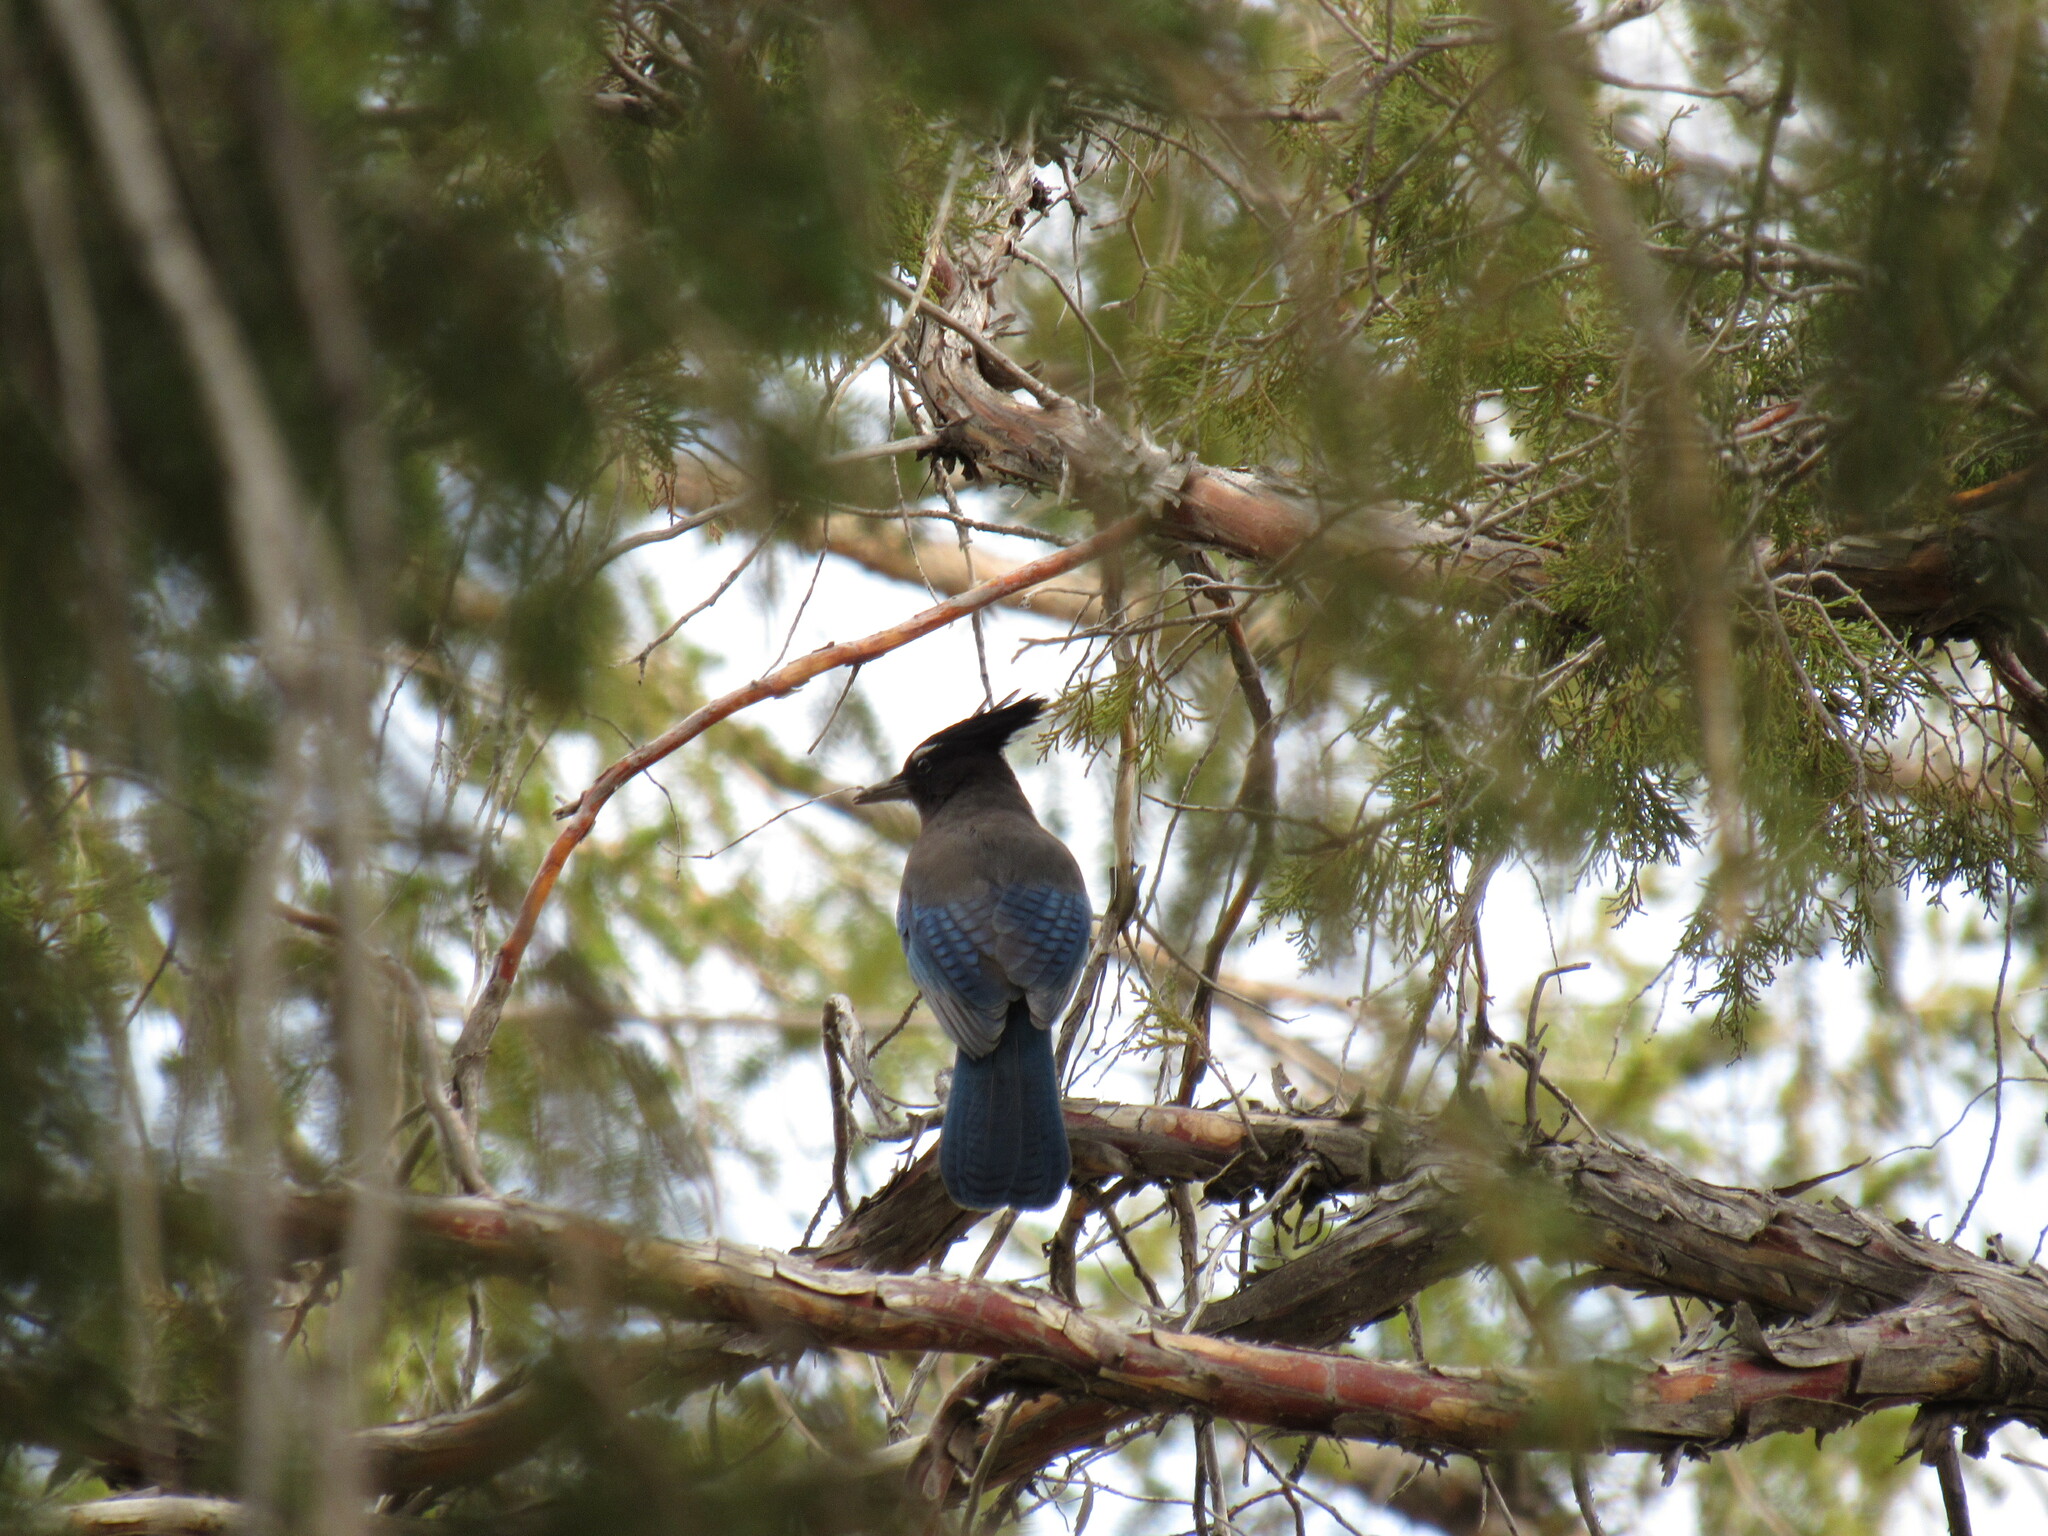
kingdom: Animalia
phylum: Chordata
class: Aves
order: Passeriformes
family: Corvidae
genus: Cyanocitta
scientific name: Cyanocitta stelleri
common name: Steller's jay
